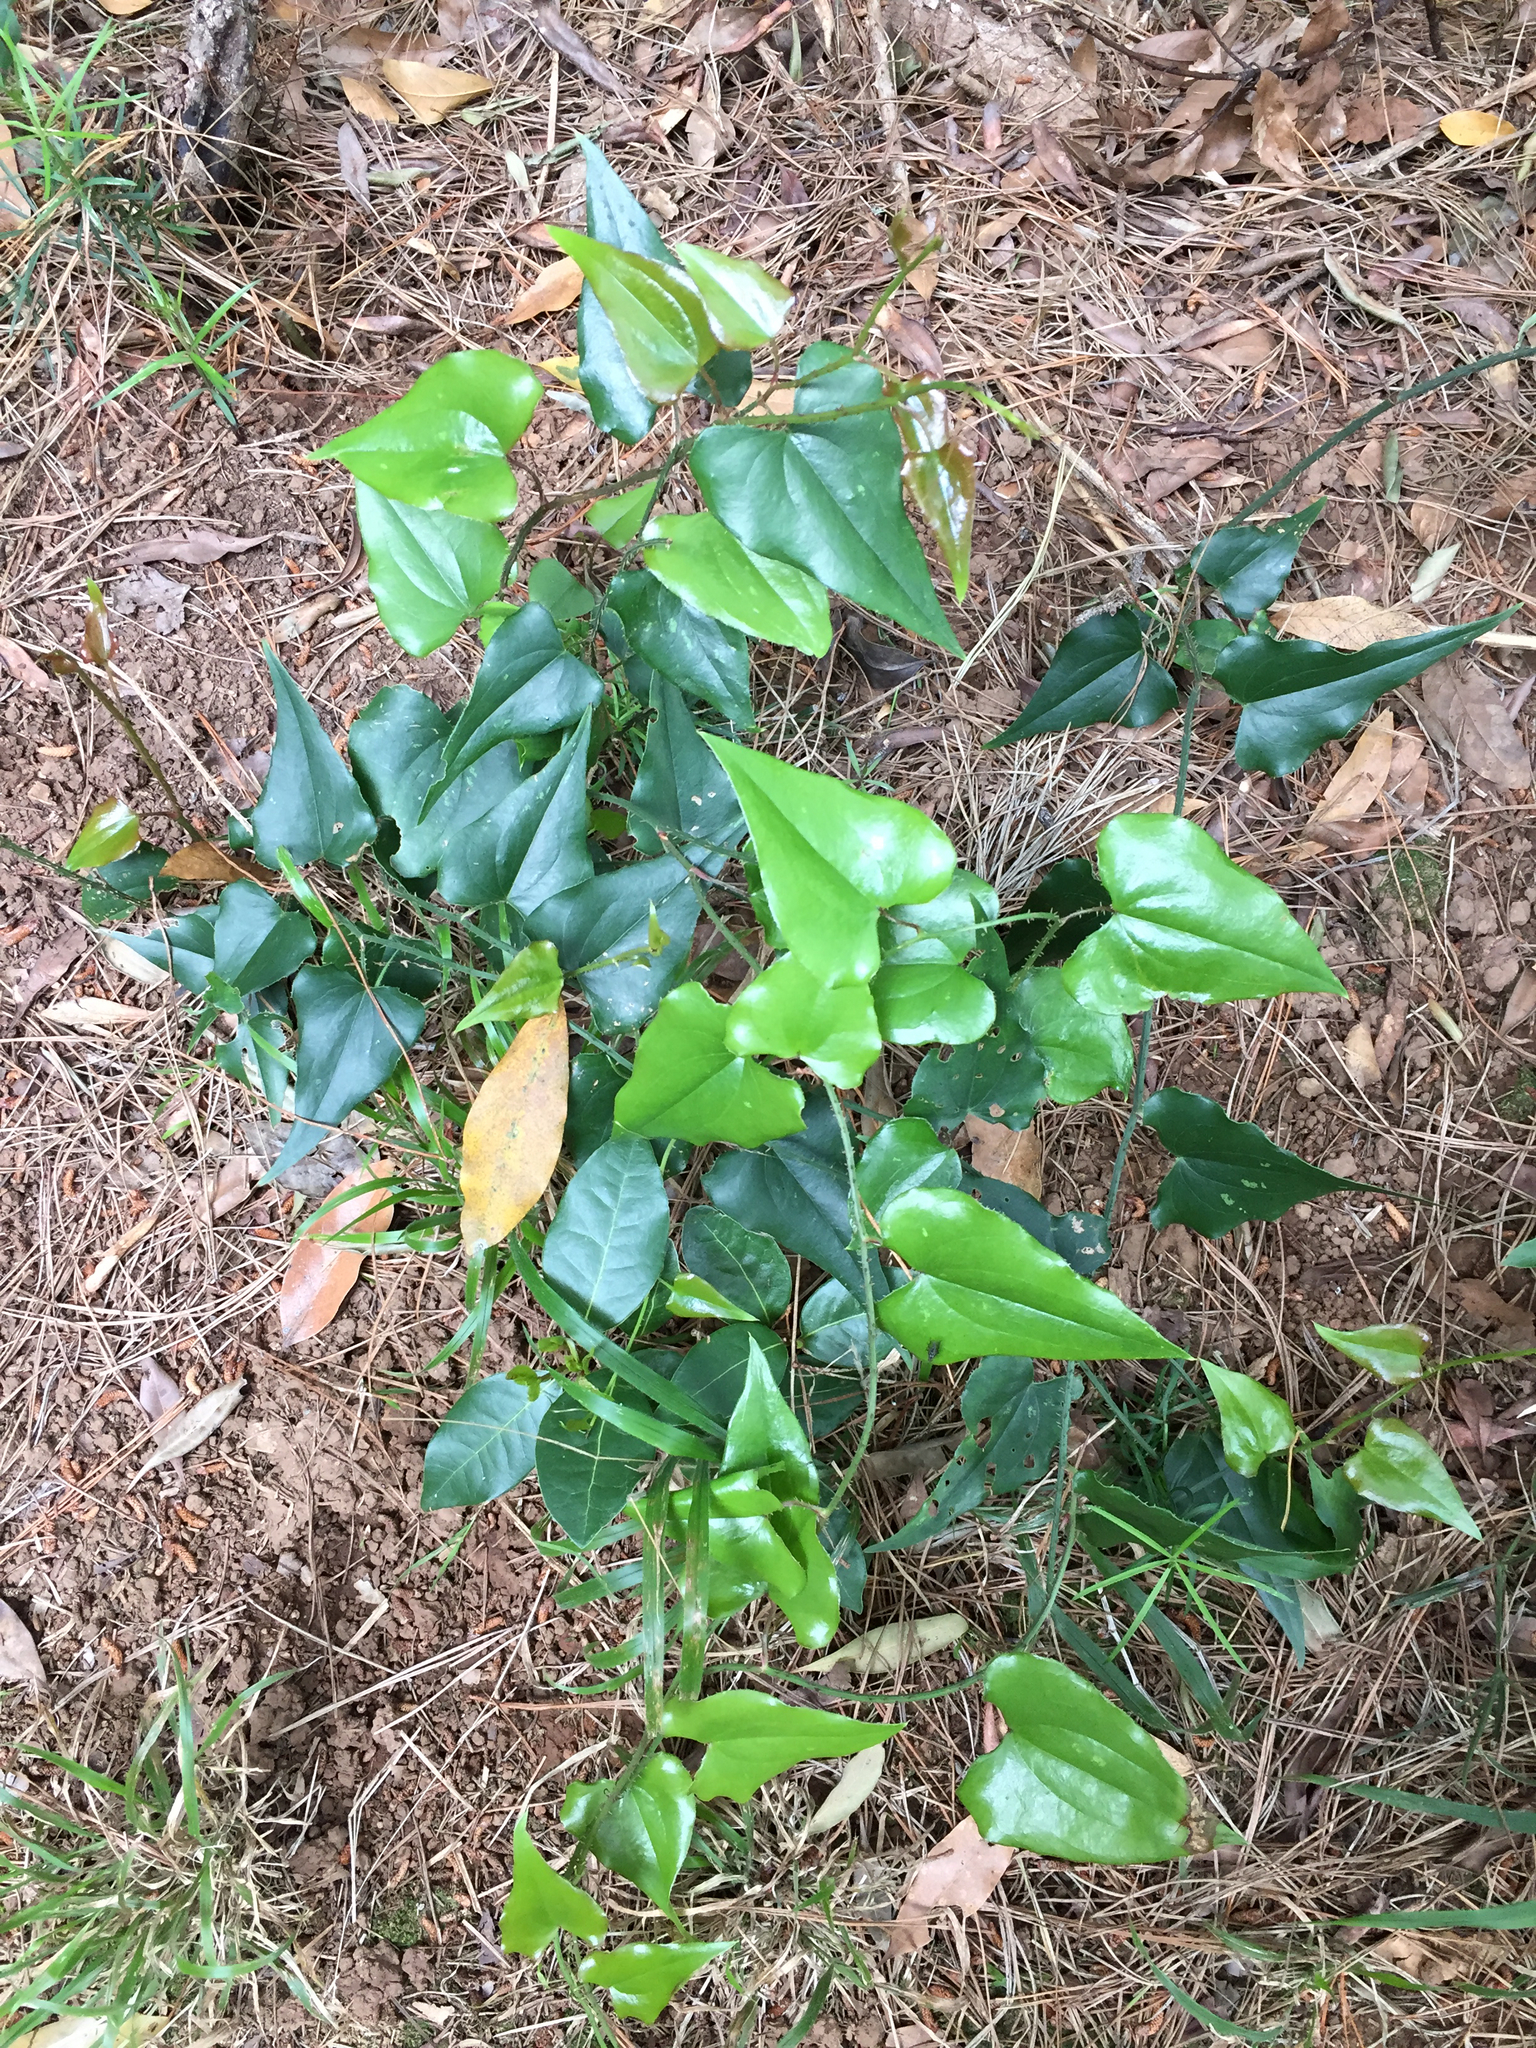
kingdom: Plantae
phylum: Tracheophyta
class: Liliopsida
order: Liliales
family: Smilacaceae
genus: Smilax
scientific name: Smilax aspera
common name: Common smilax
